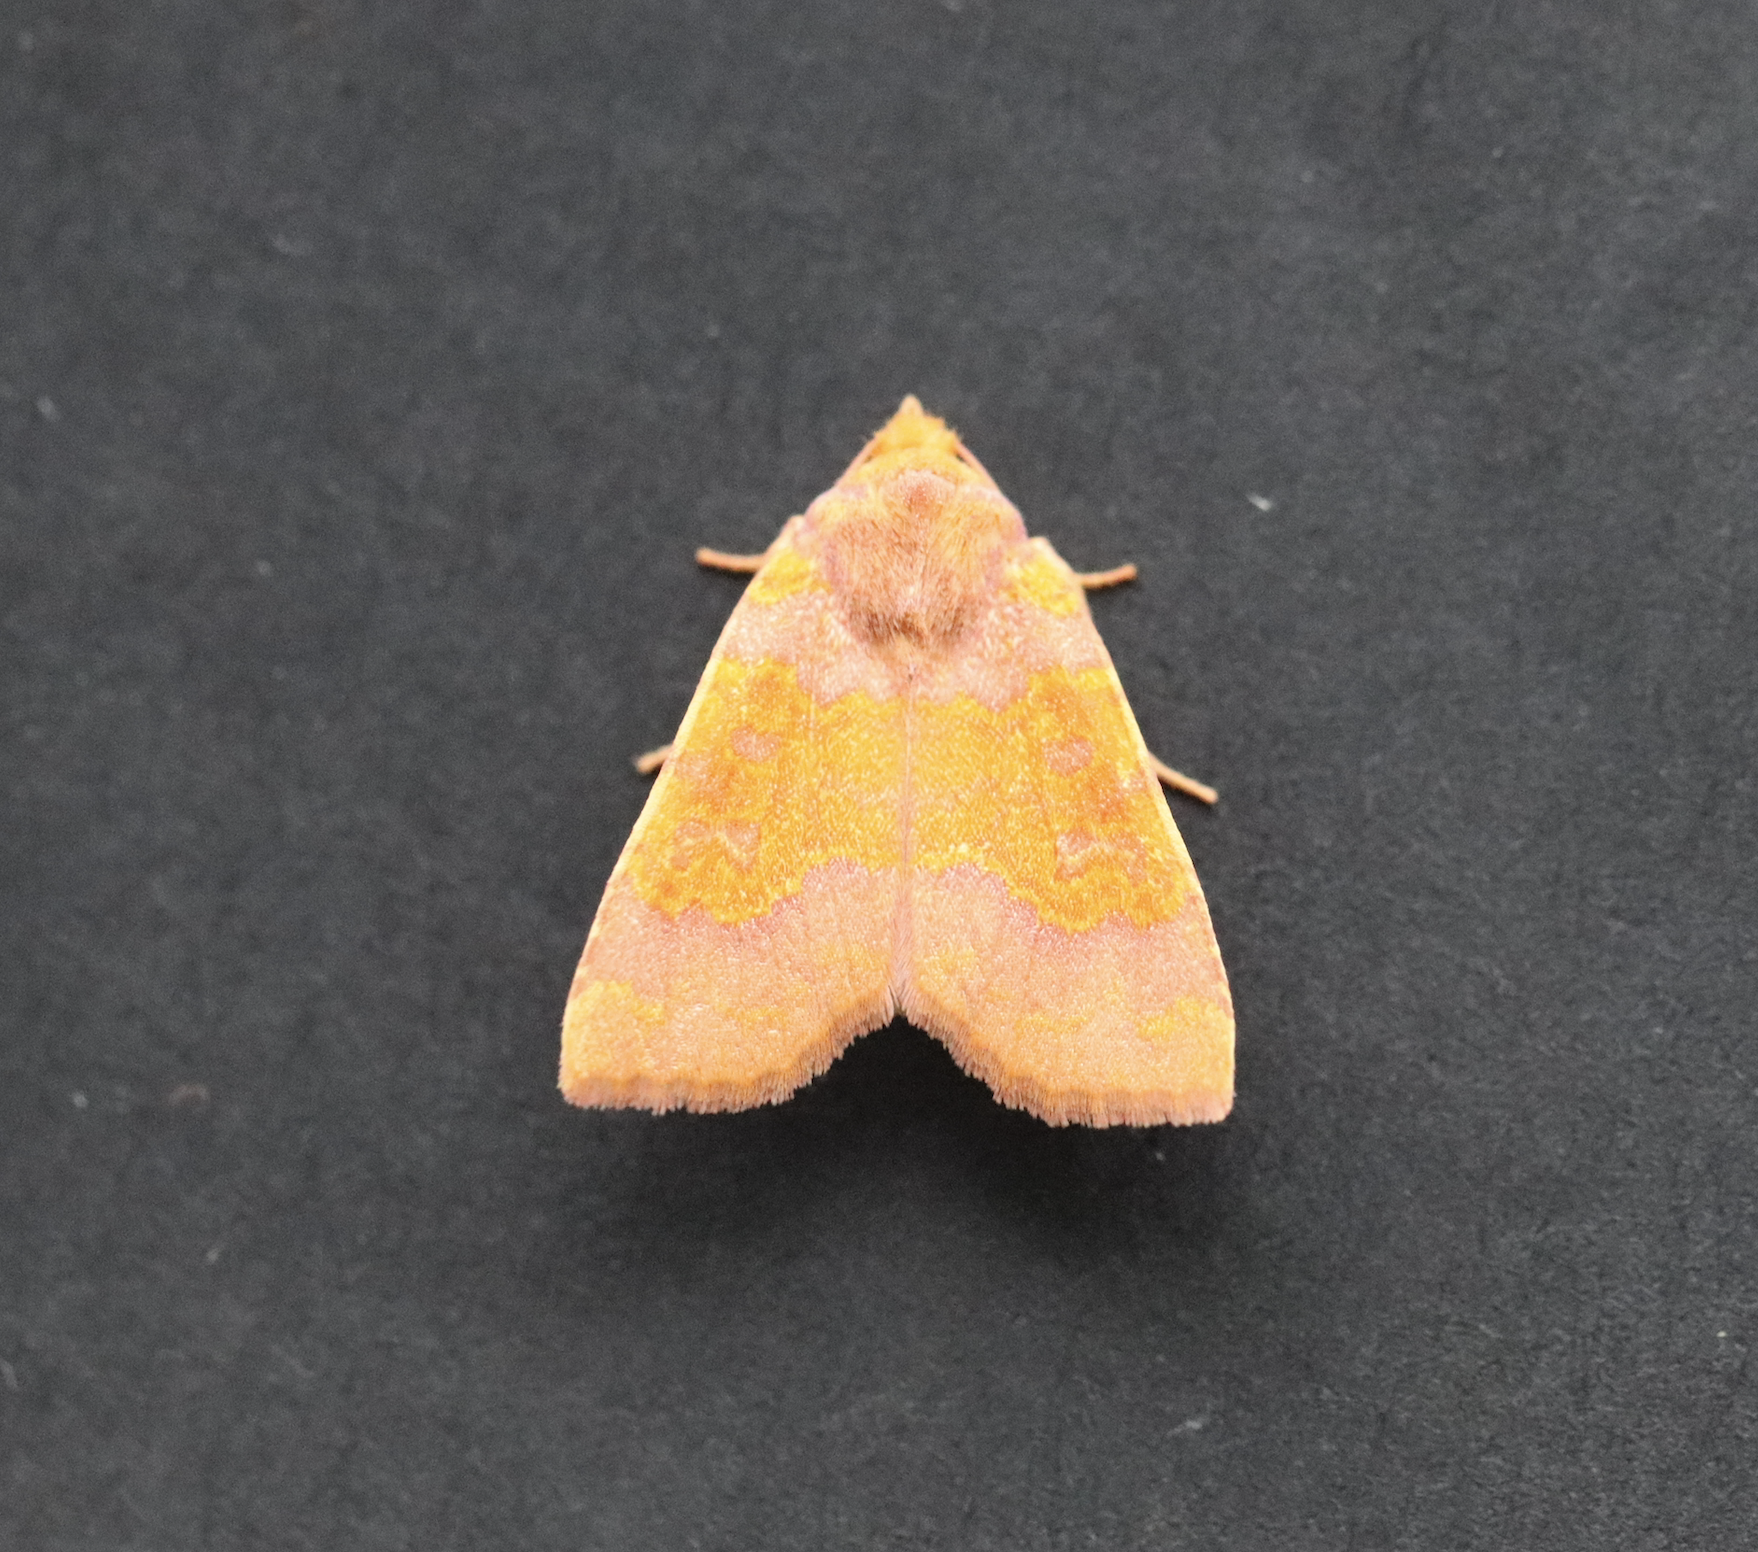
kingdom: Animalia
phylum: Arthropoda
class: Insecta
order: Lepidoptera
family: Noctuidae
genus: Tiliacea
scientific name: Tiliacea aurago
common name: Barred sallow
